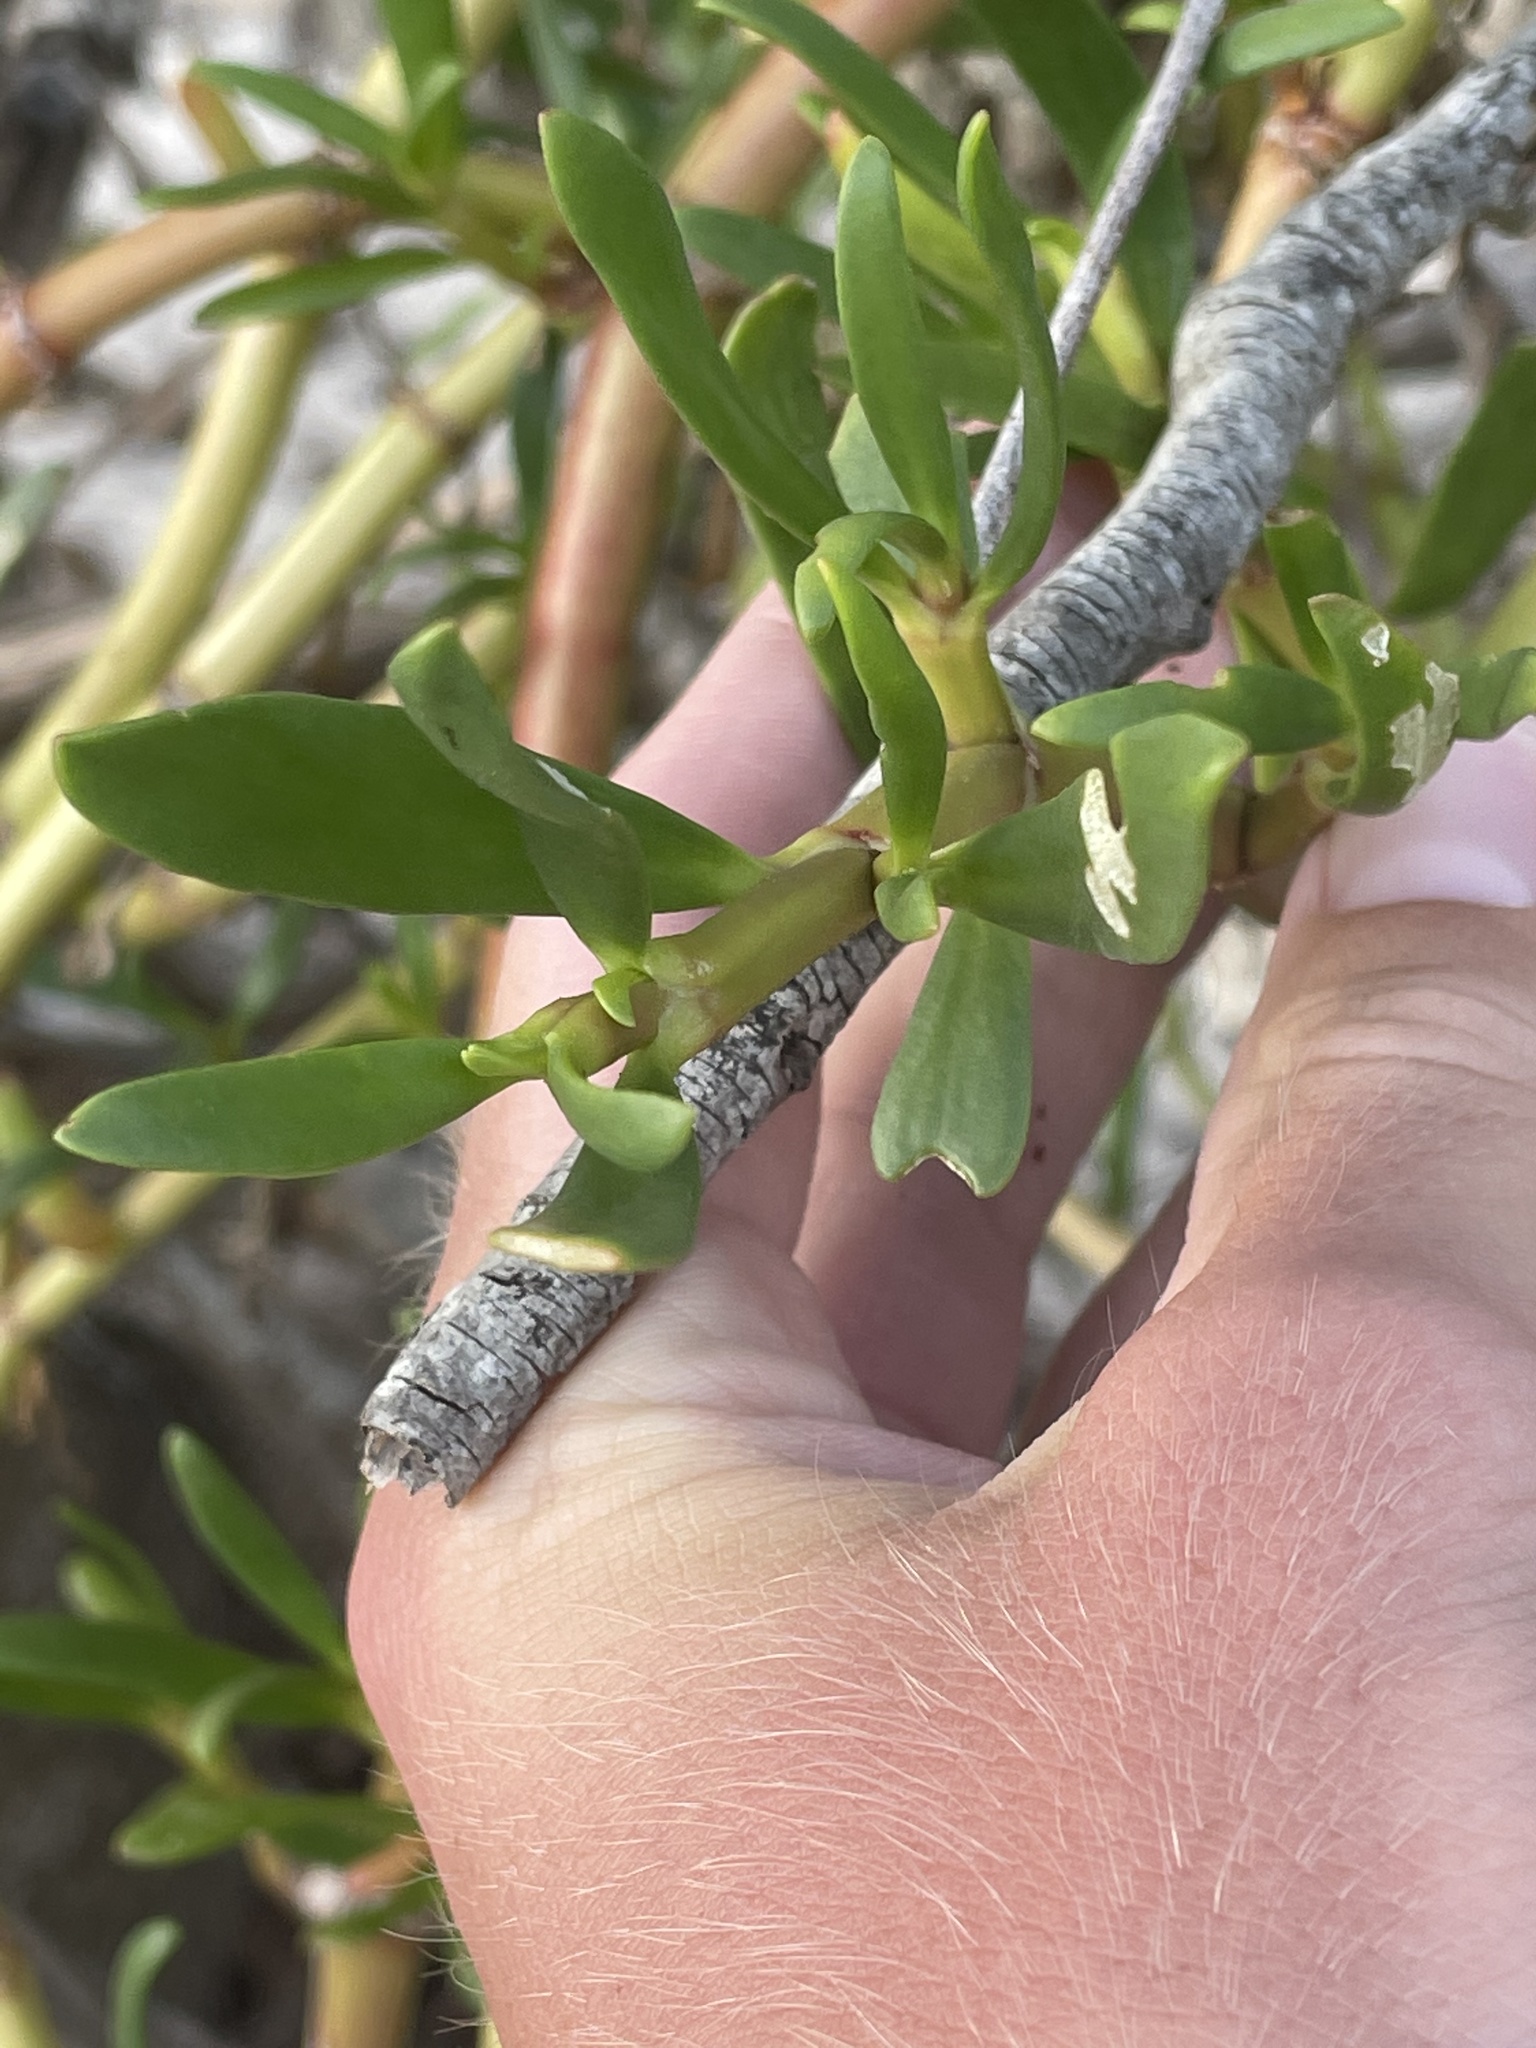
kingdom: Plantae
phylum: Tracheophyta
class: Magnoliopsida
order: Caryophyllales
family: Aizoaceae
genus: Sesuvium
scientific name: Sesuvium portulacastrum
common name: Sea-purslane
